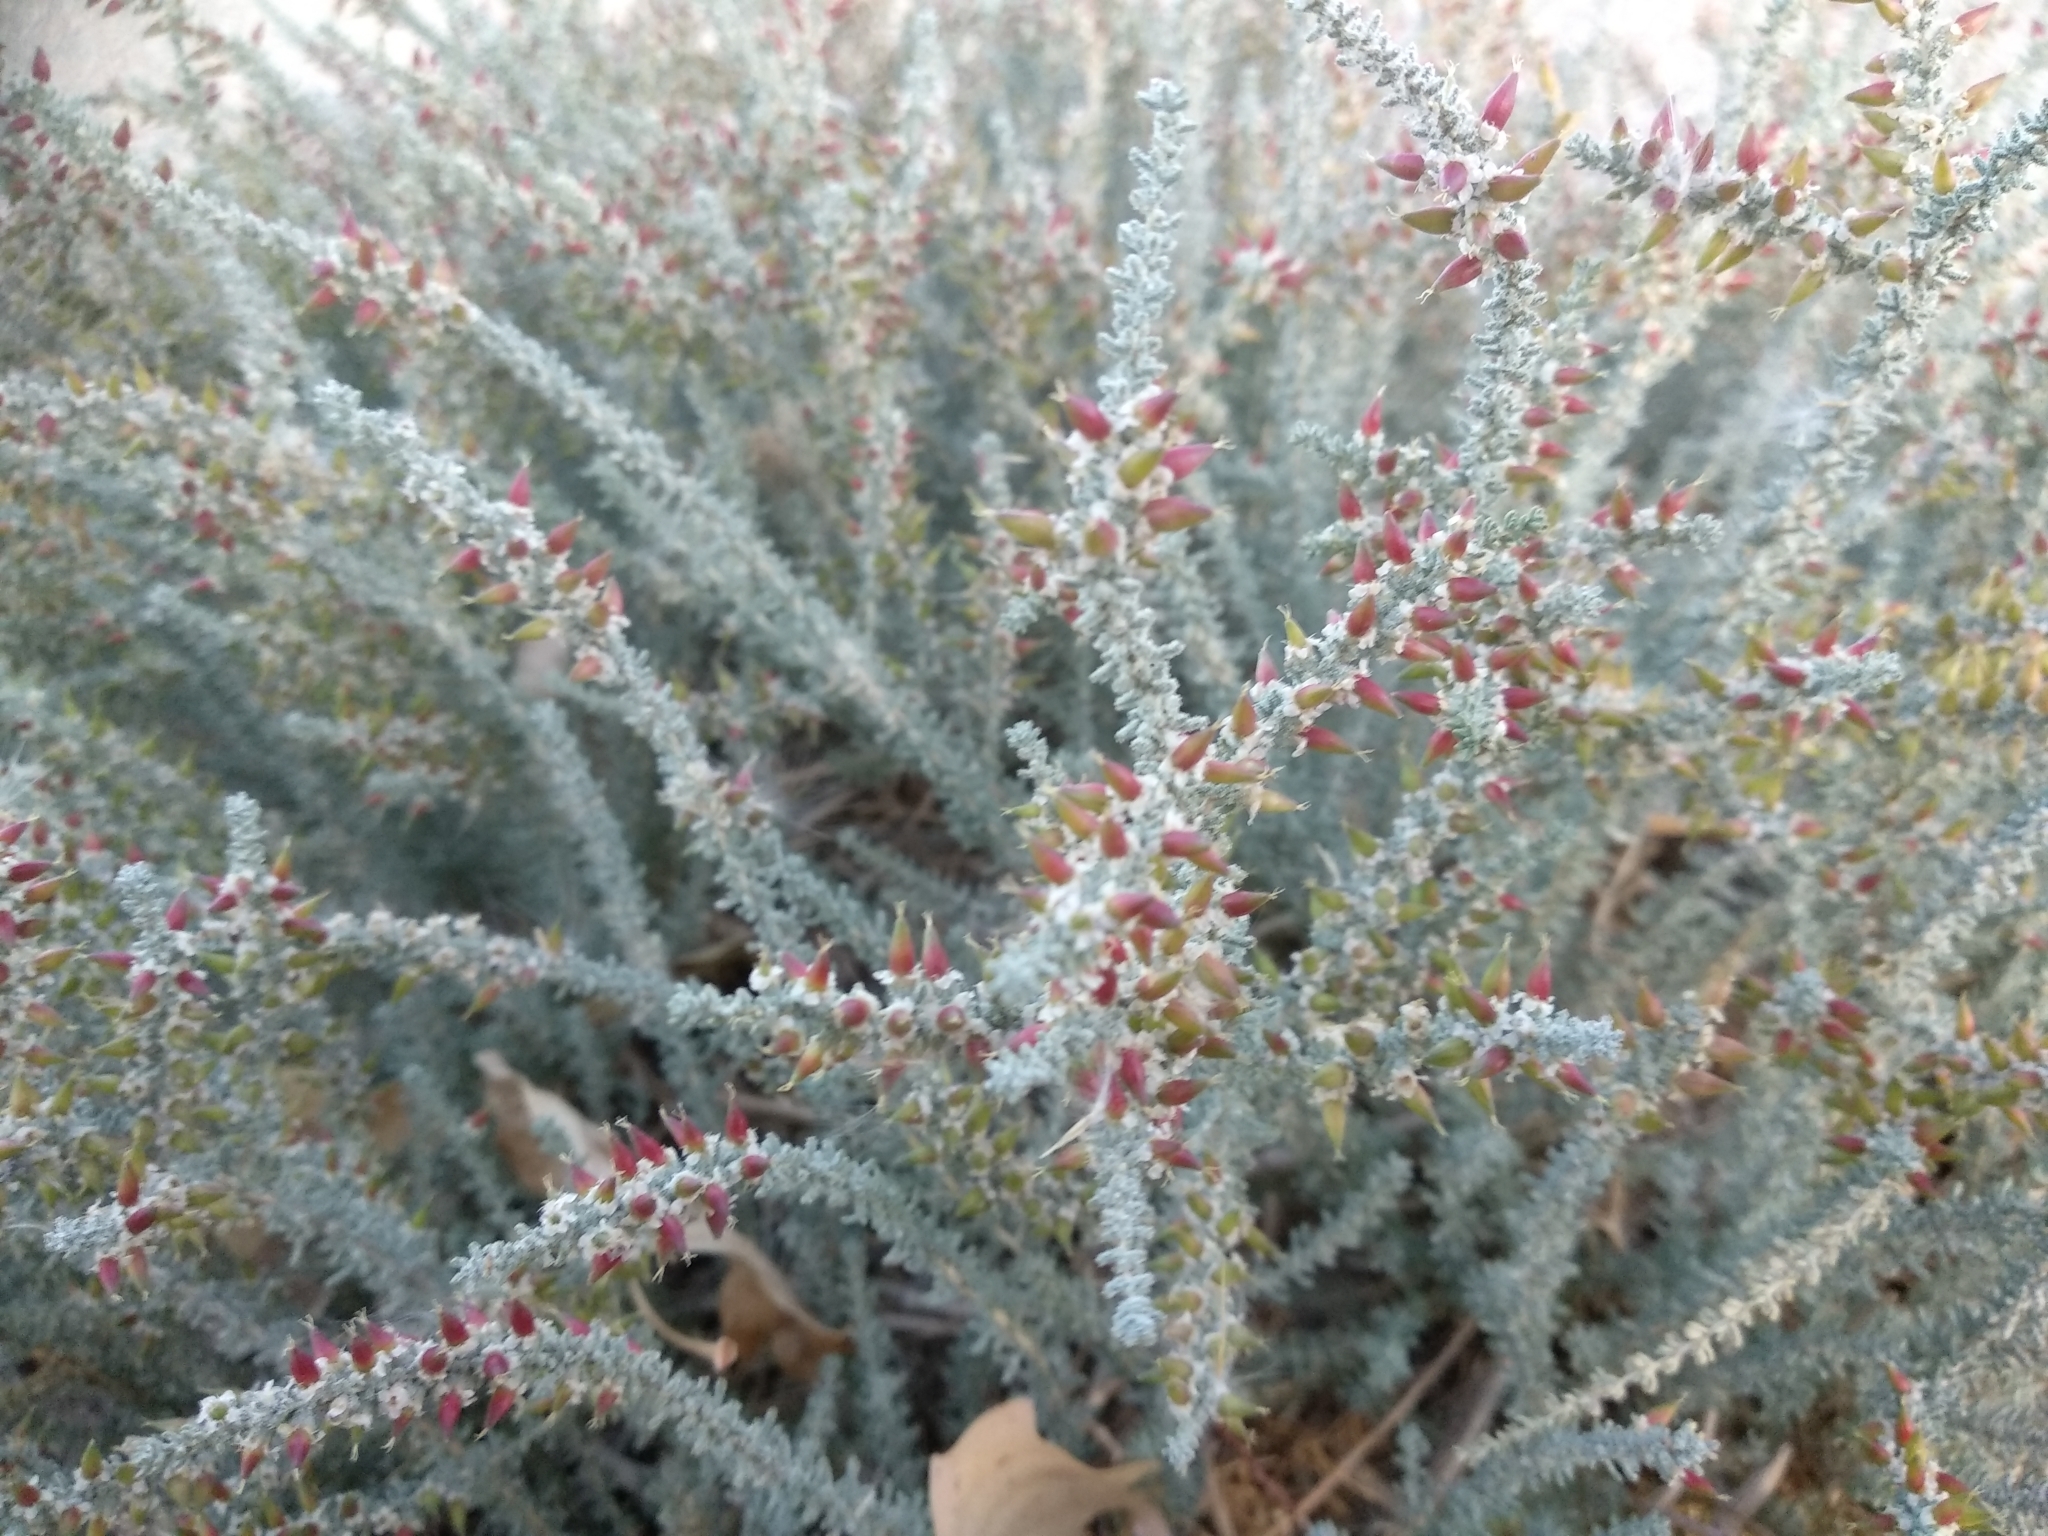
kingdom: Plantae
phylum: Tracheophyta
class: Magnoliopsida
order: Caryophyllales
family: Tamaricaceae
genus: Reaumuria
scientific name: Reaumuria songarica
